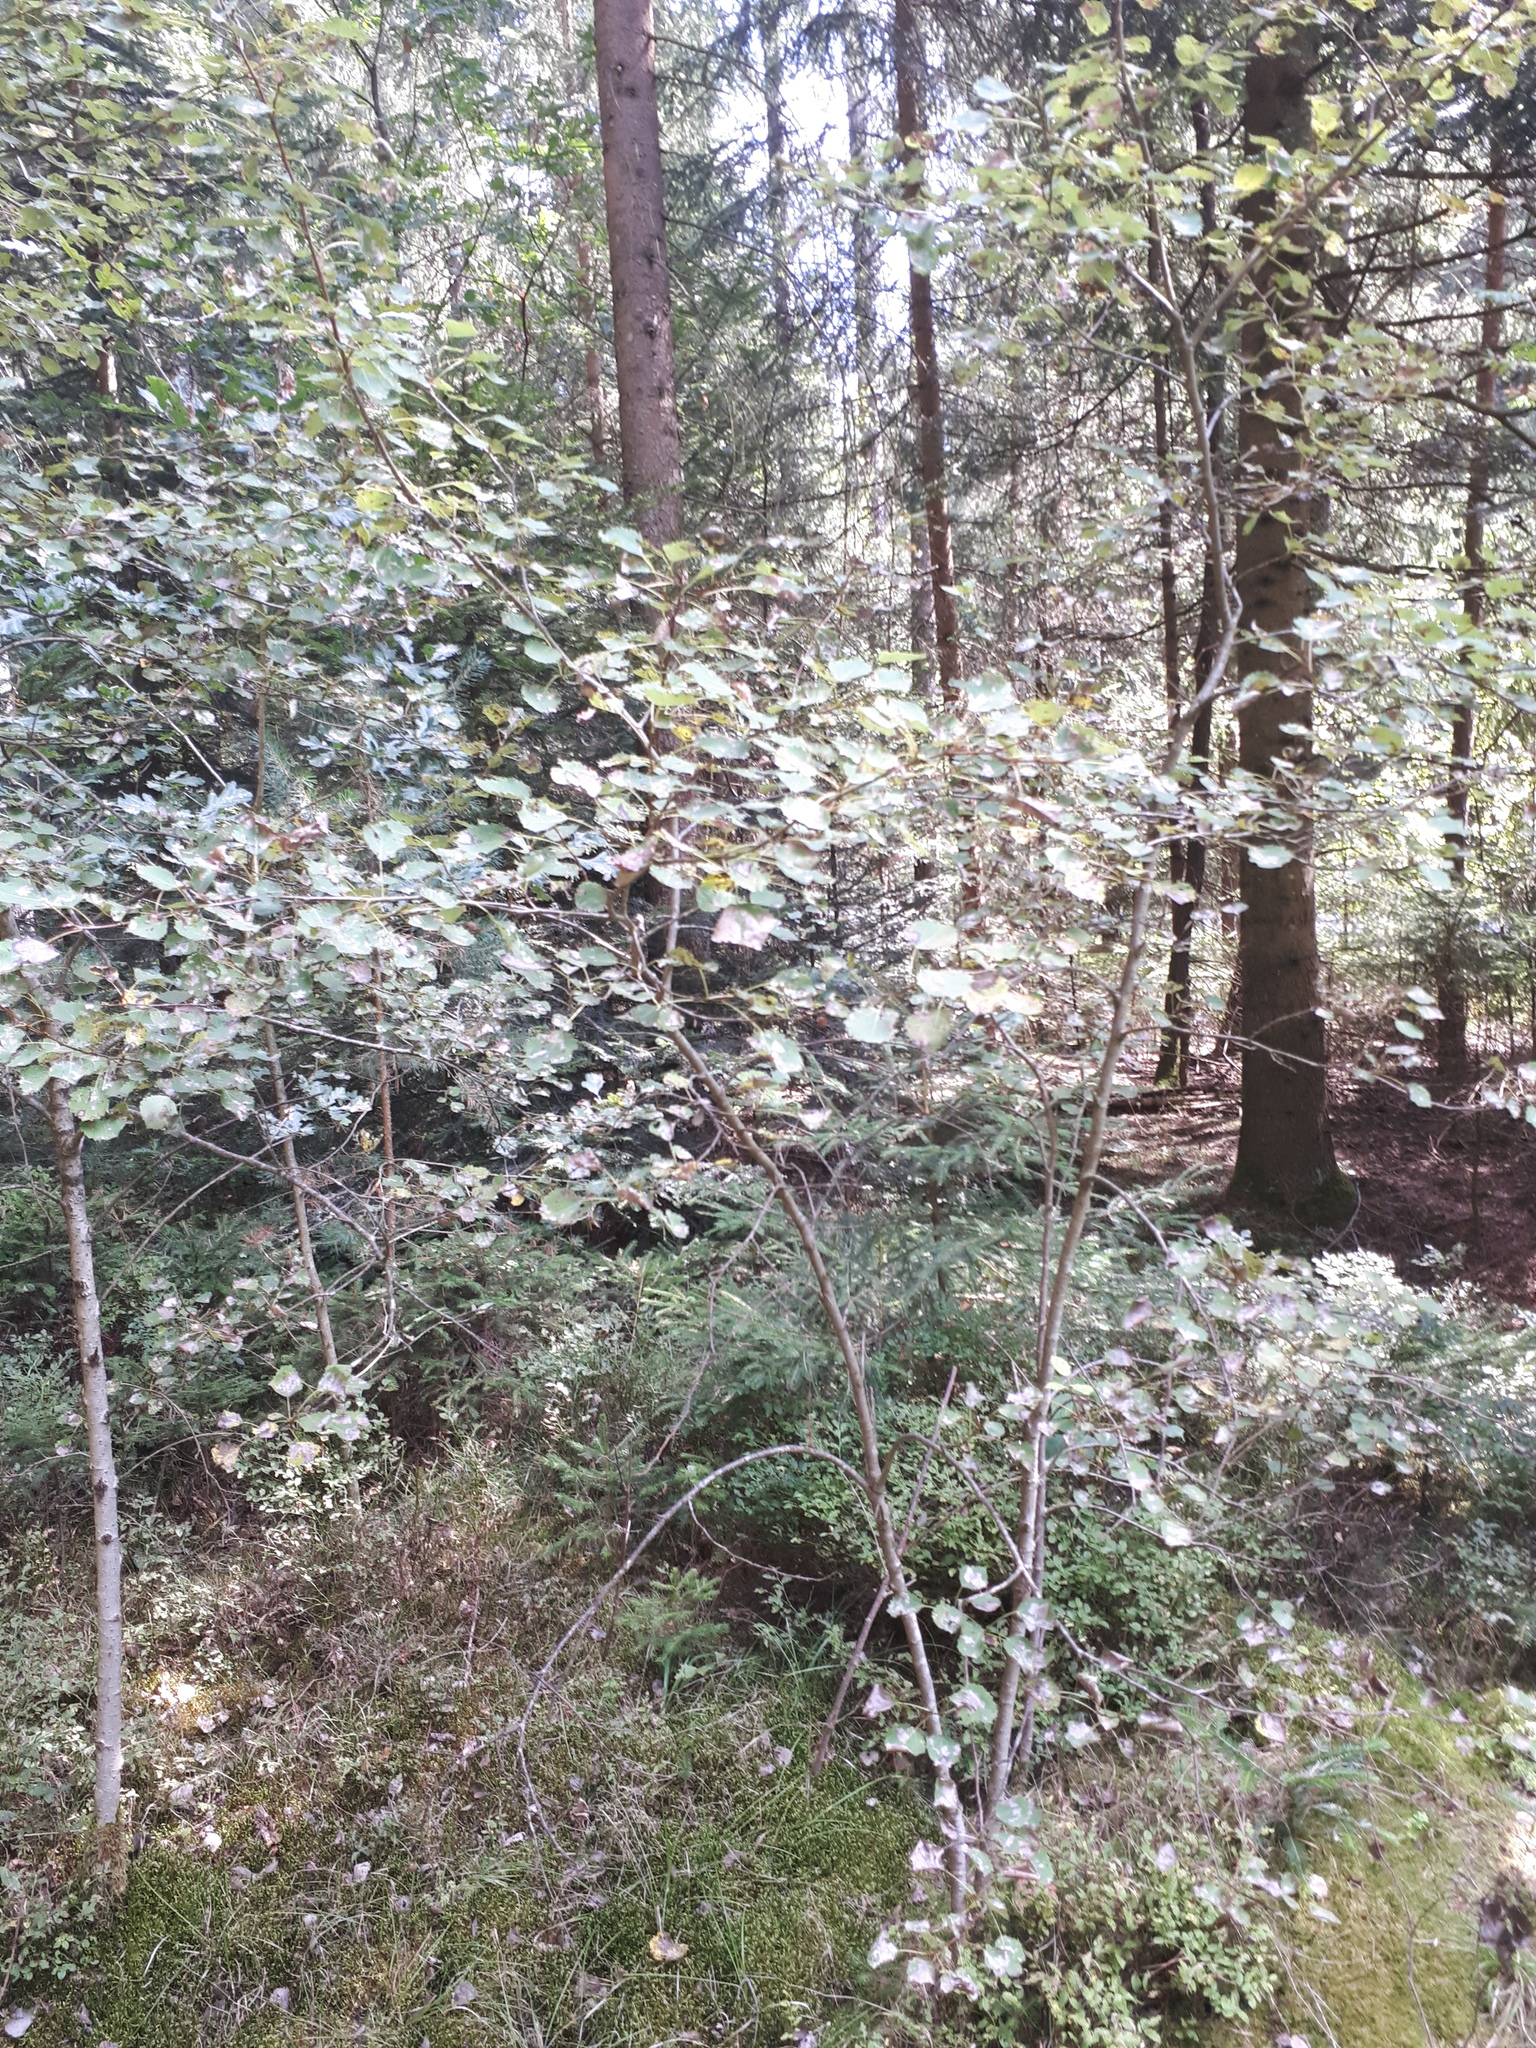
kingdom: Plantae
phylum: Tracheophyta
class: Magnoliopsida
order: Malpighiales
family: Salicaceae
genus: Populus
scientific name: Populus tremula
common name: European aspen
